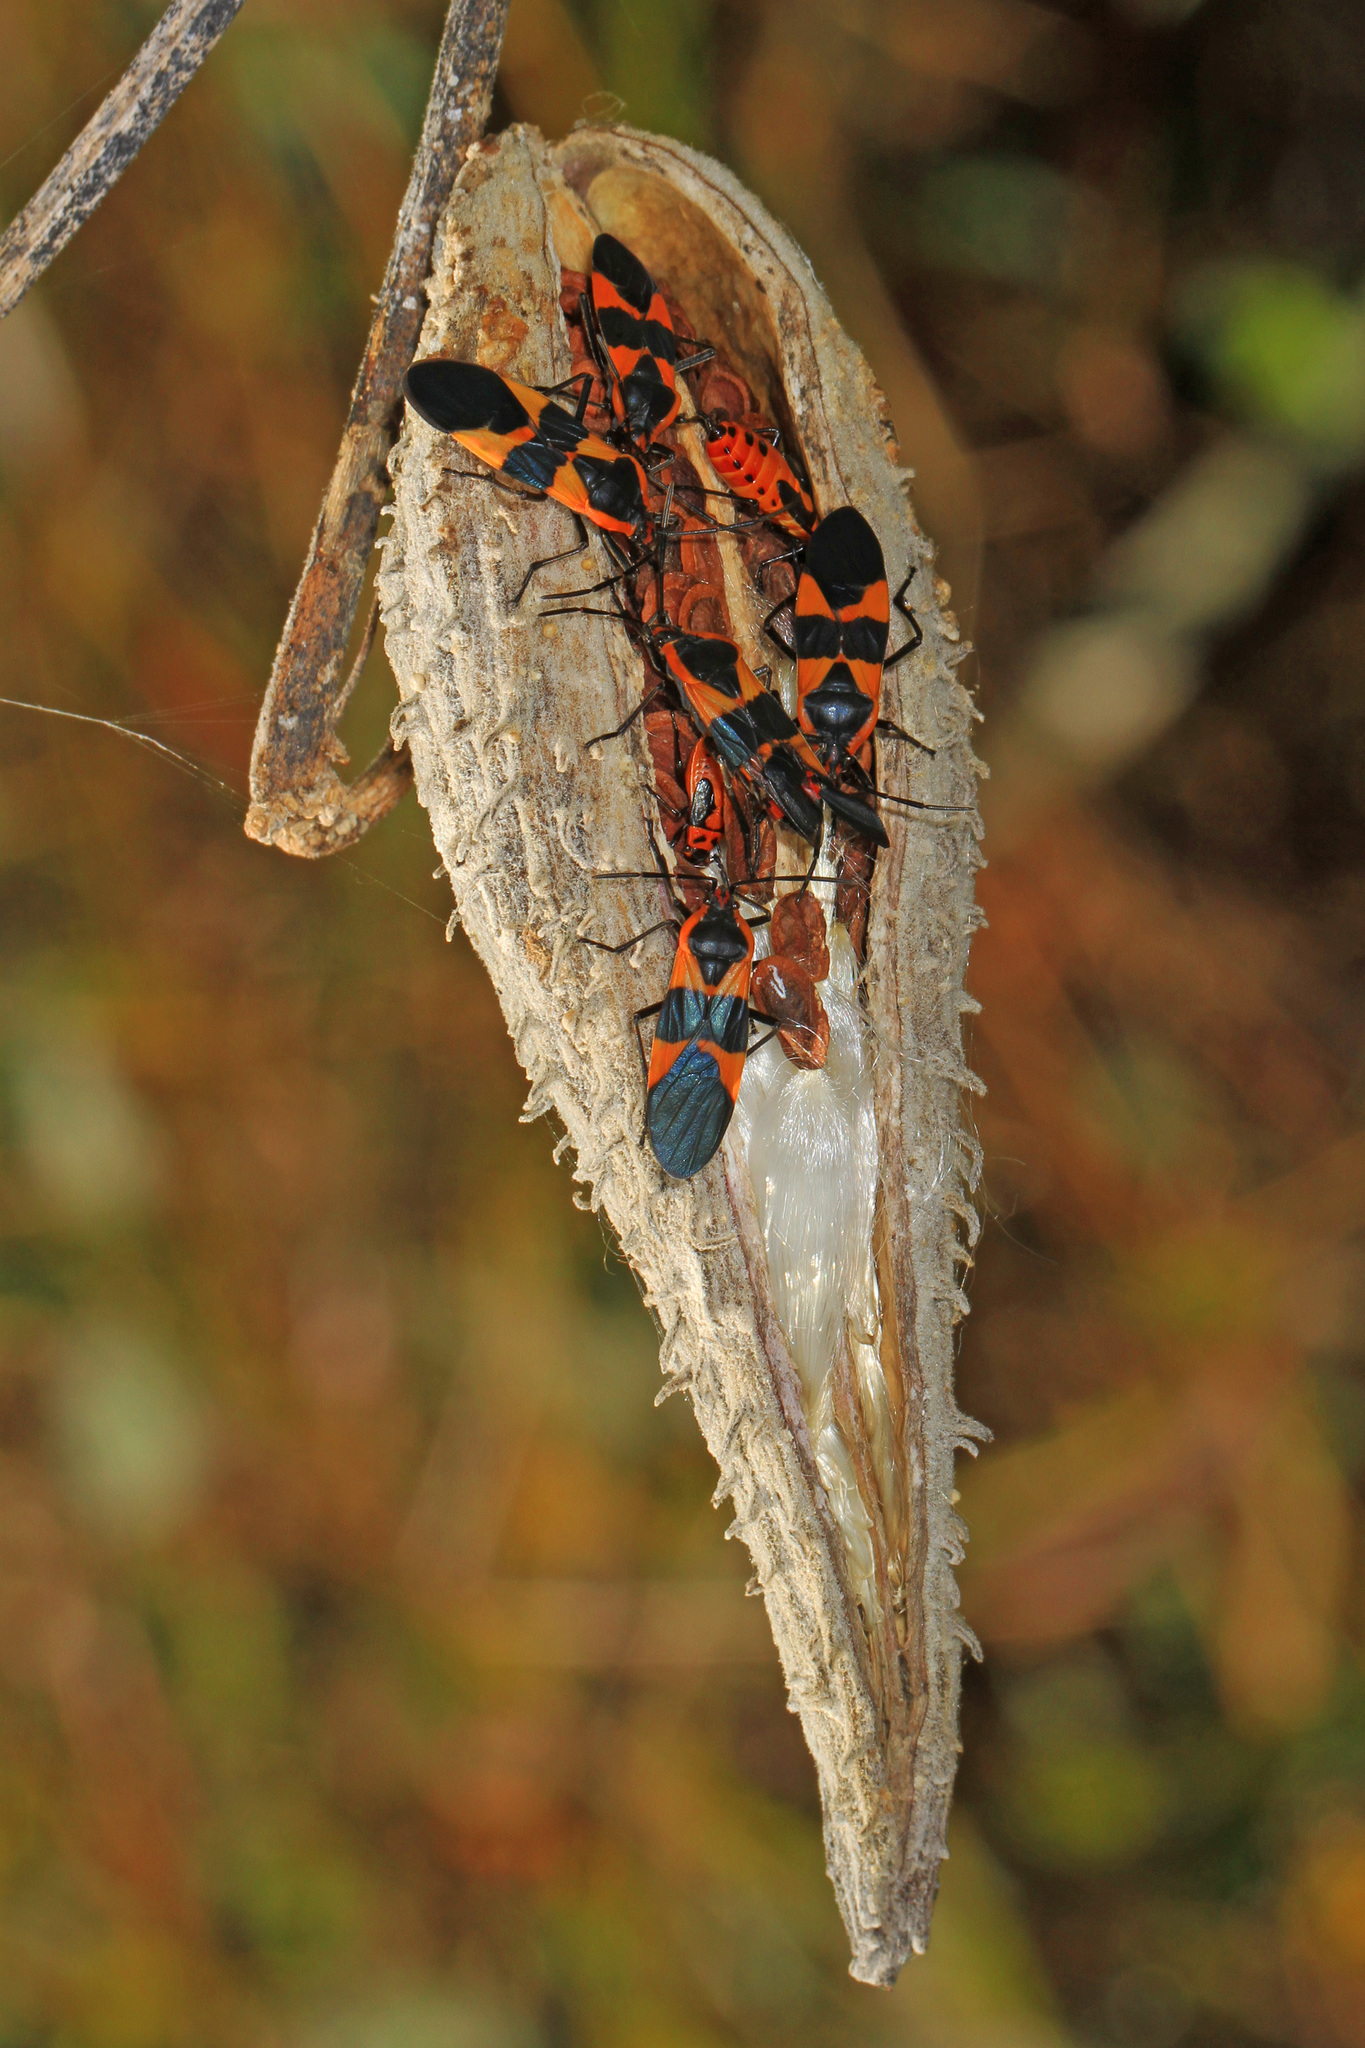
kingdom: Animalia
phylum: Arthropoda
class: Insecta
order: Hemiptera
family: Lygaeidae
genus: Oncopeltus
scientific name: Oncopeltus fasciatus
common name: Large milkweed bug
